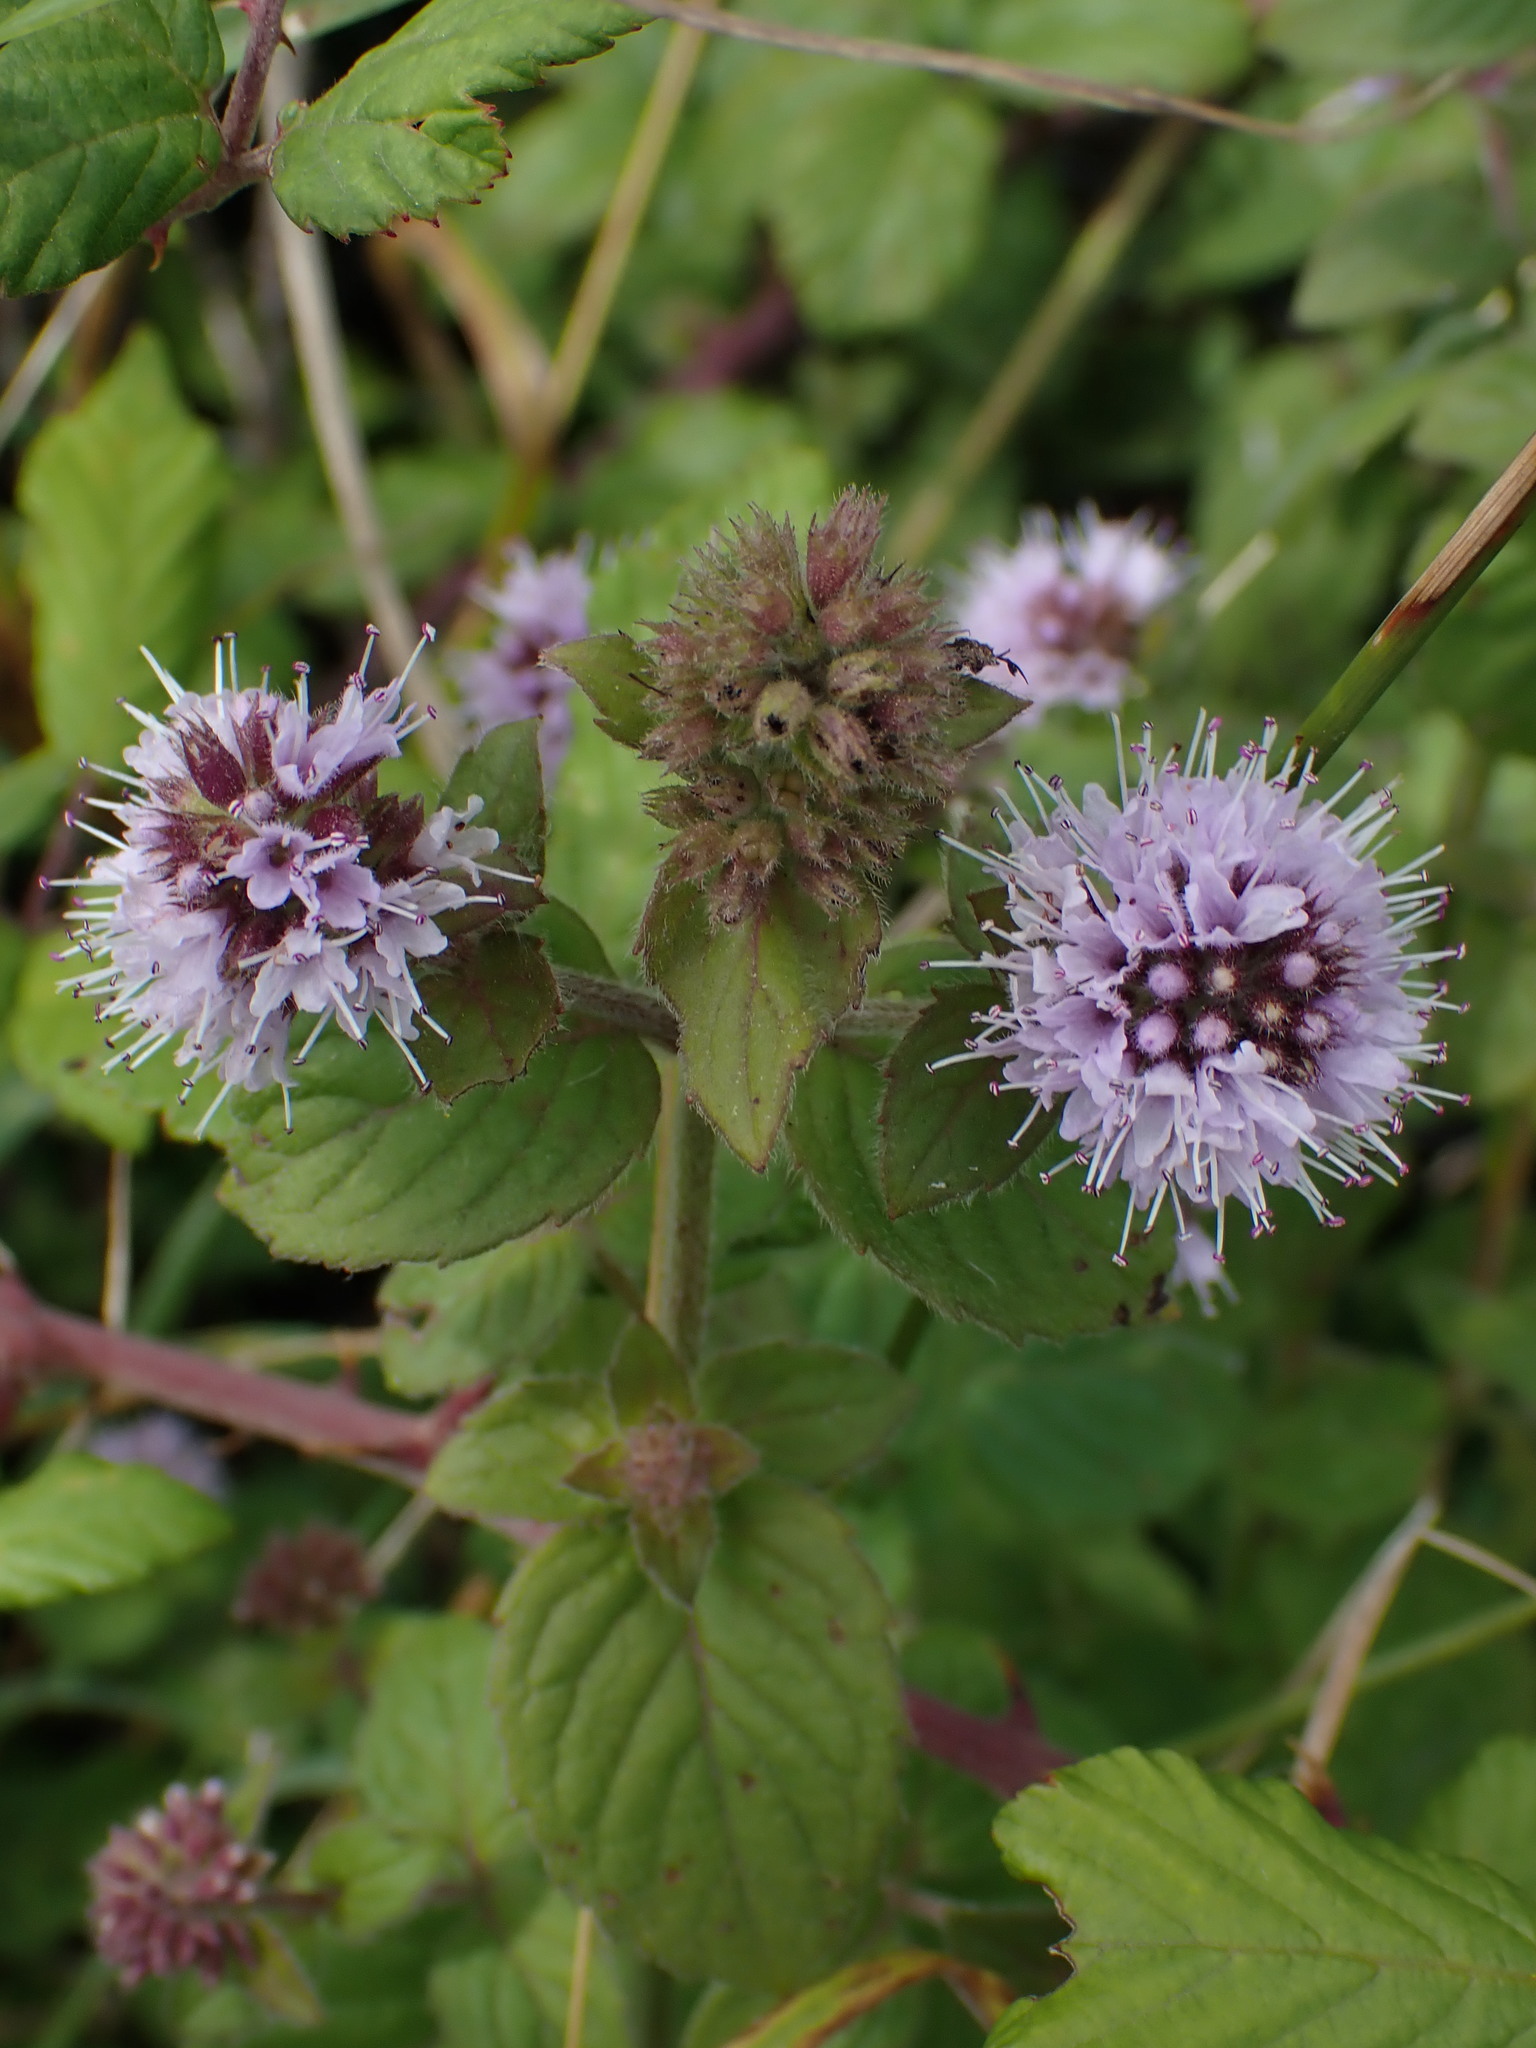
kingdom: Plantae
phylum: Tracheophyta
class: Magnoliopsida
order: Lamiales
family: Lamiaceae
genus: Mentha
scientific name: Mentha aquatica
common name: Water mint
